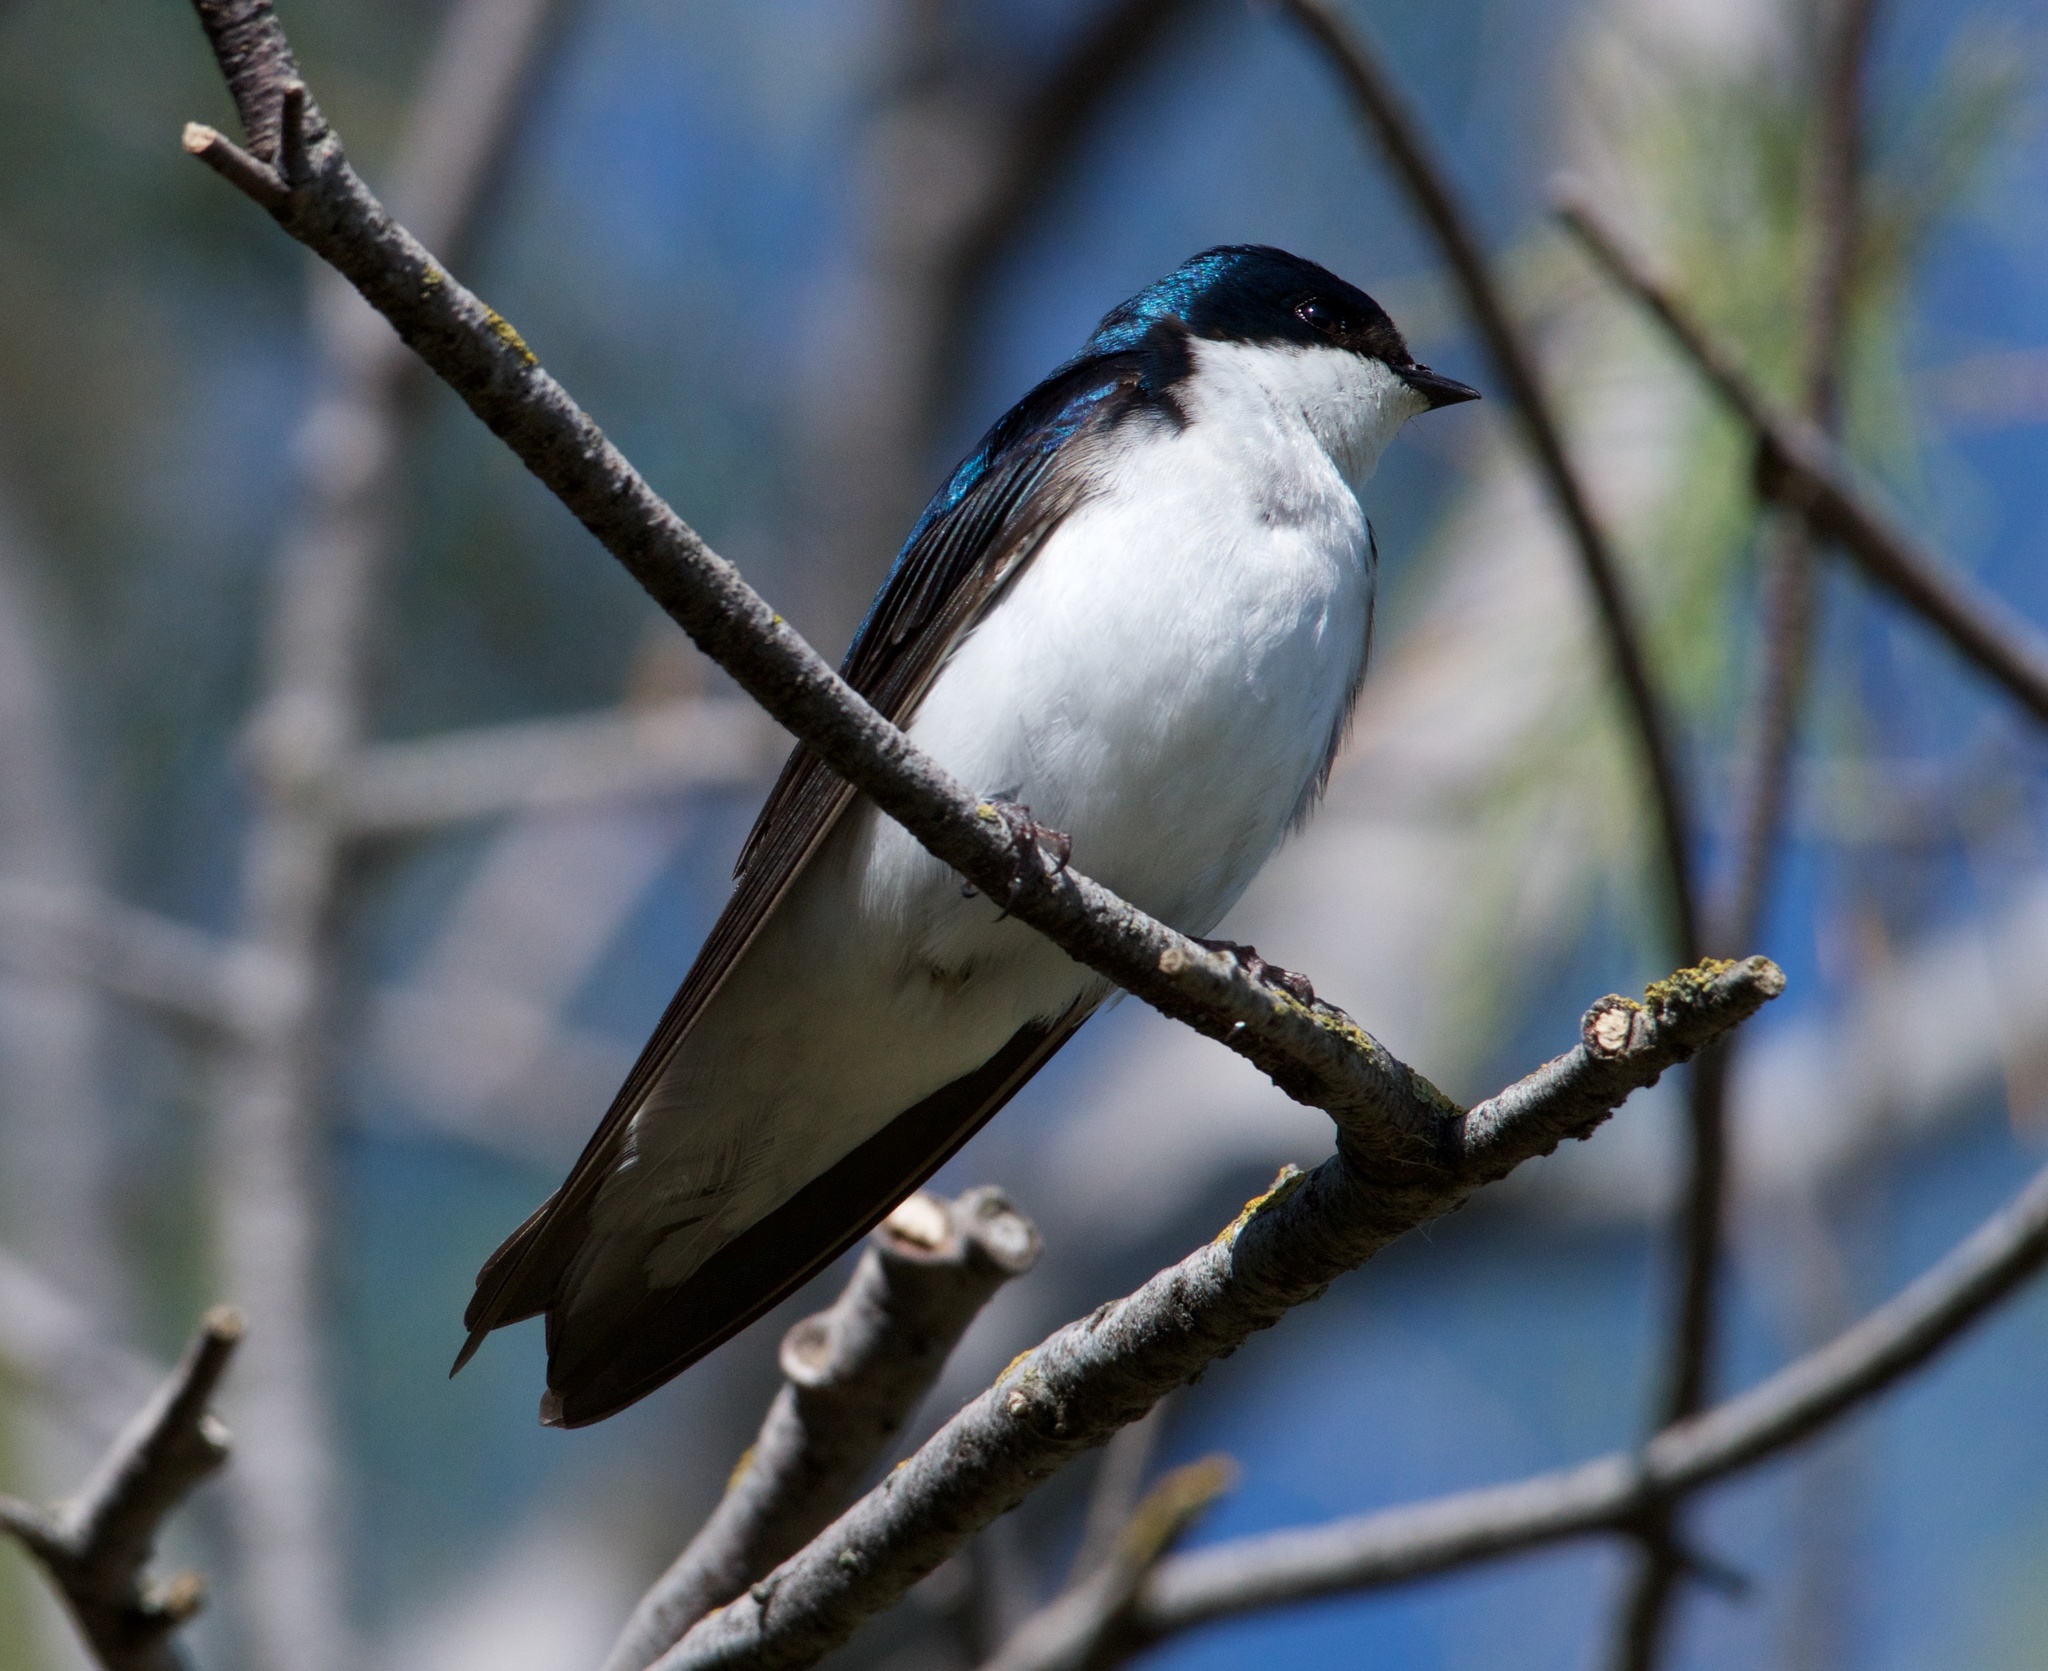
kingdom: Animalia
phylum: Chordata
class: Aves
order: Passeriformes
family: Hirundinidae
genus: Tachycineta
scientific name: Tachycineta bicolor
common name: Tree swallow
